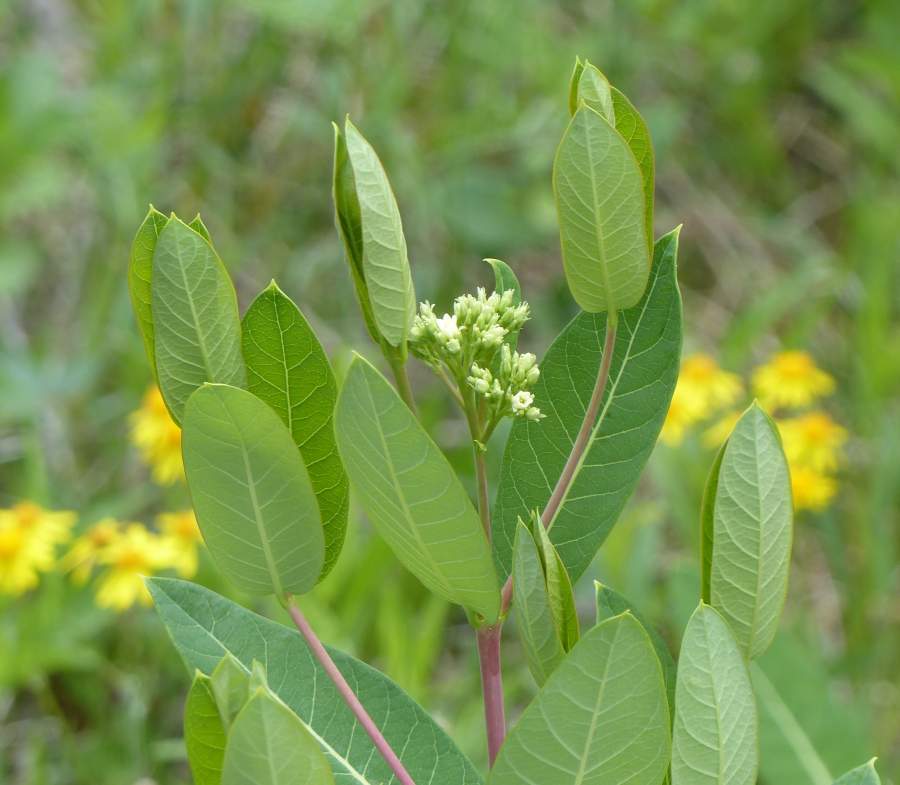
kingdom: Plantae
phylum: Tracheophyta
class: Magnoliopsida
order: Gentianales
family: Apocynaceae
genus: Apocynum
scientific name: Apocynum cannabinum
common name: Hemp dogbane
